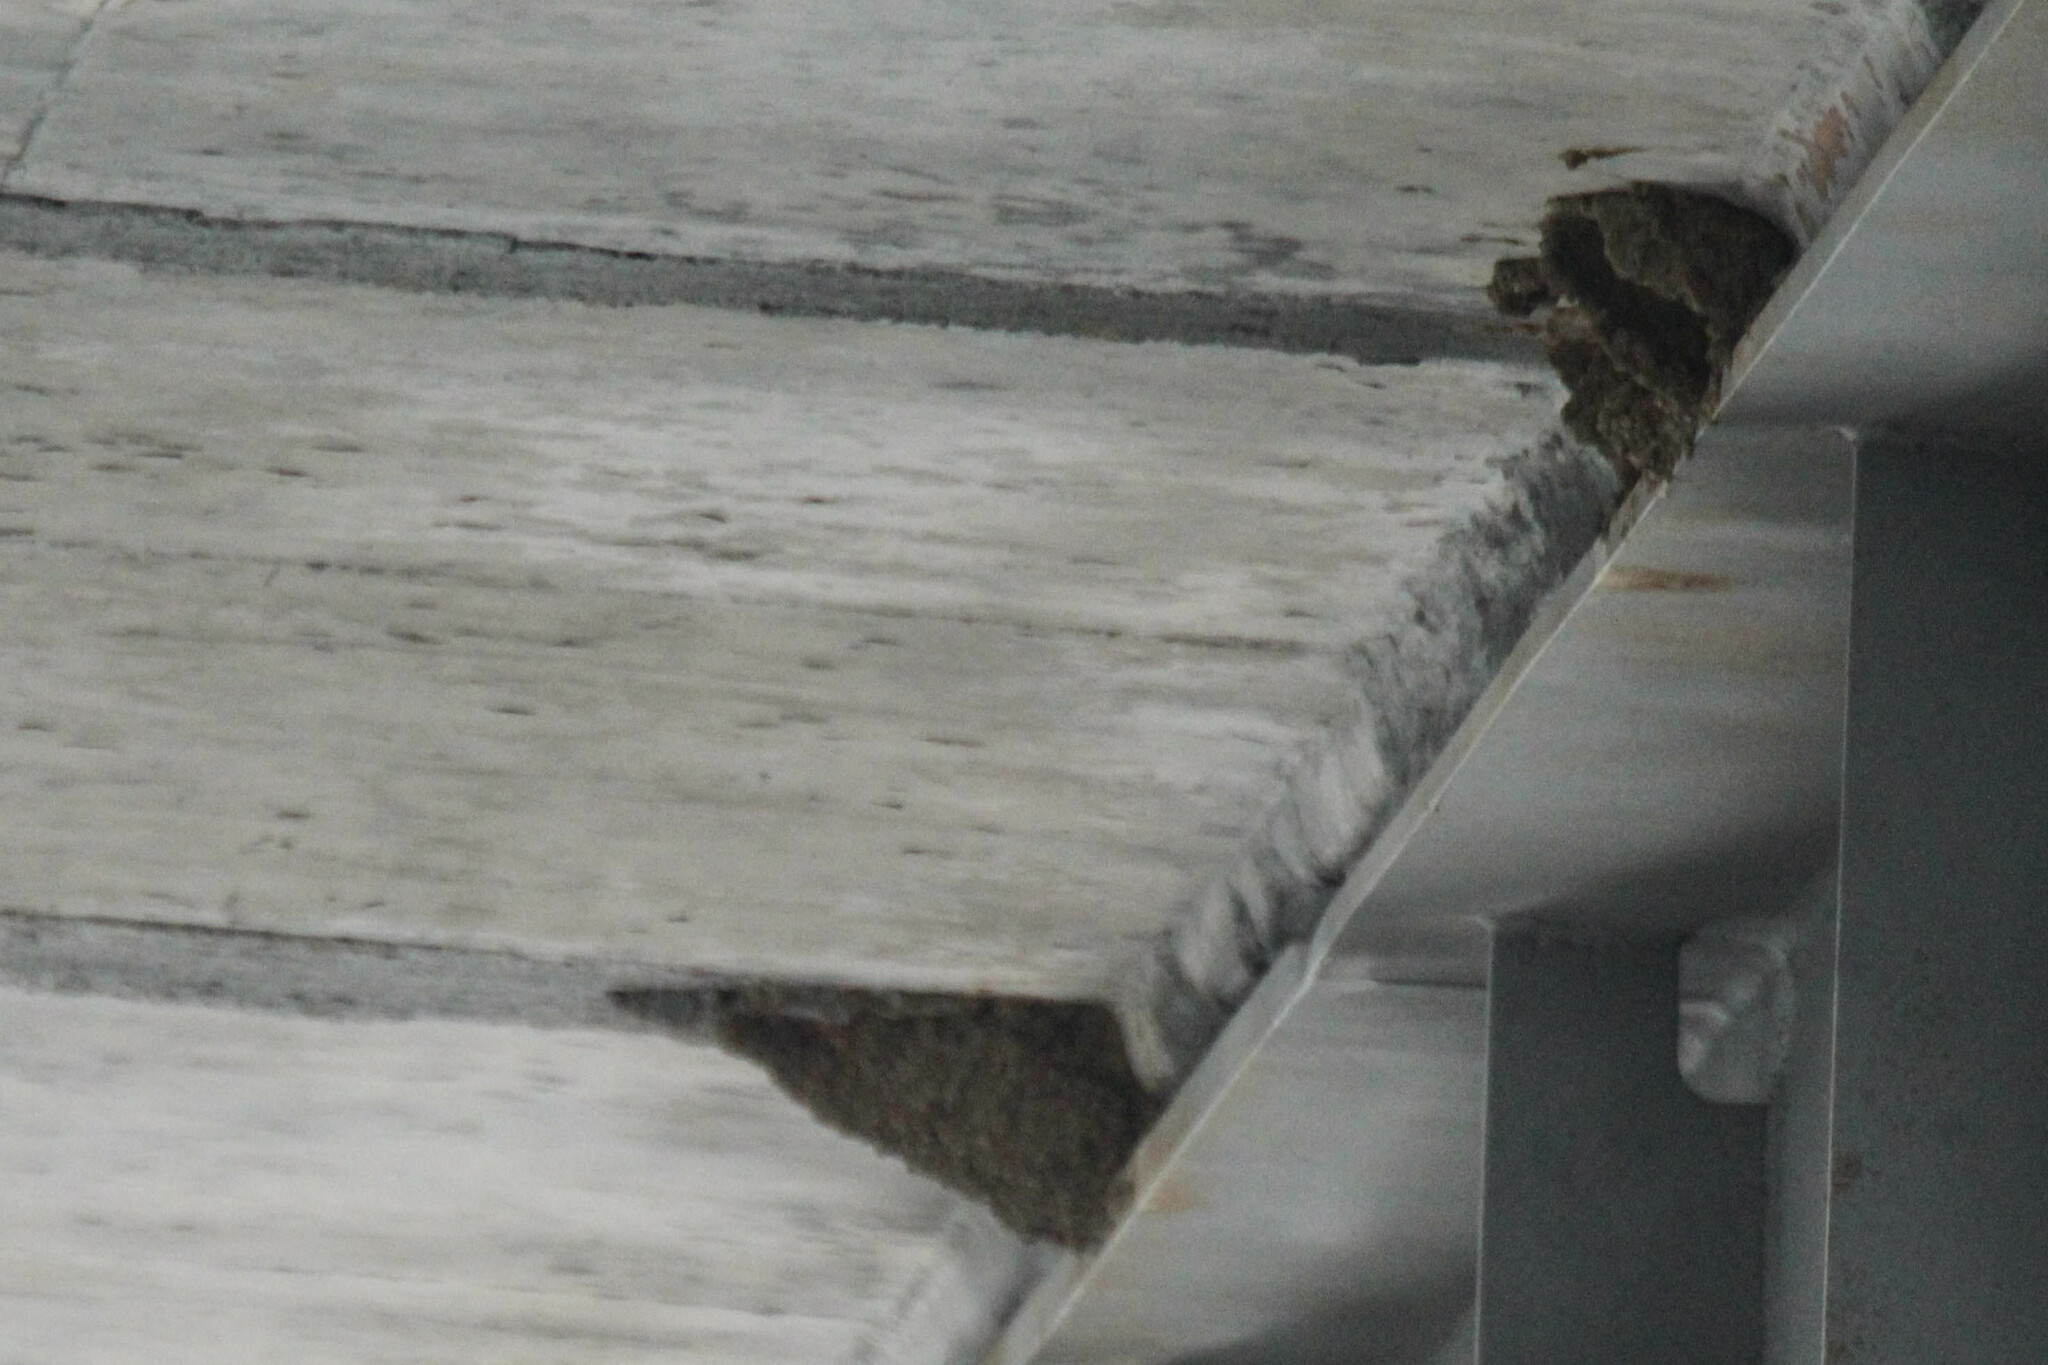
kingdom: Animalia
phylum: Chordata
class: Aves
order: Passeriformes
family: Hirundinidae
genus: Cecropis
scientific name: Cecropis daurica
